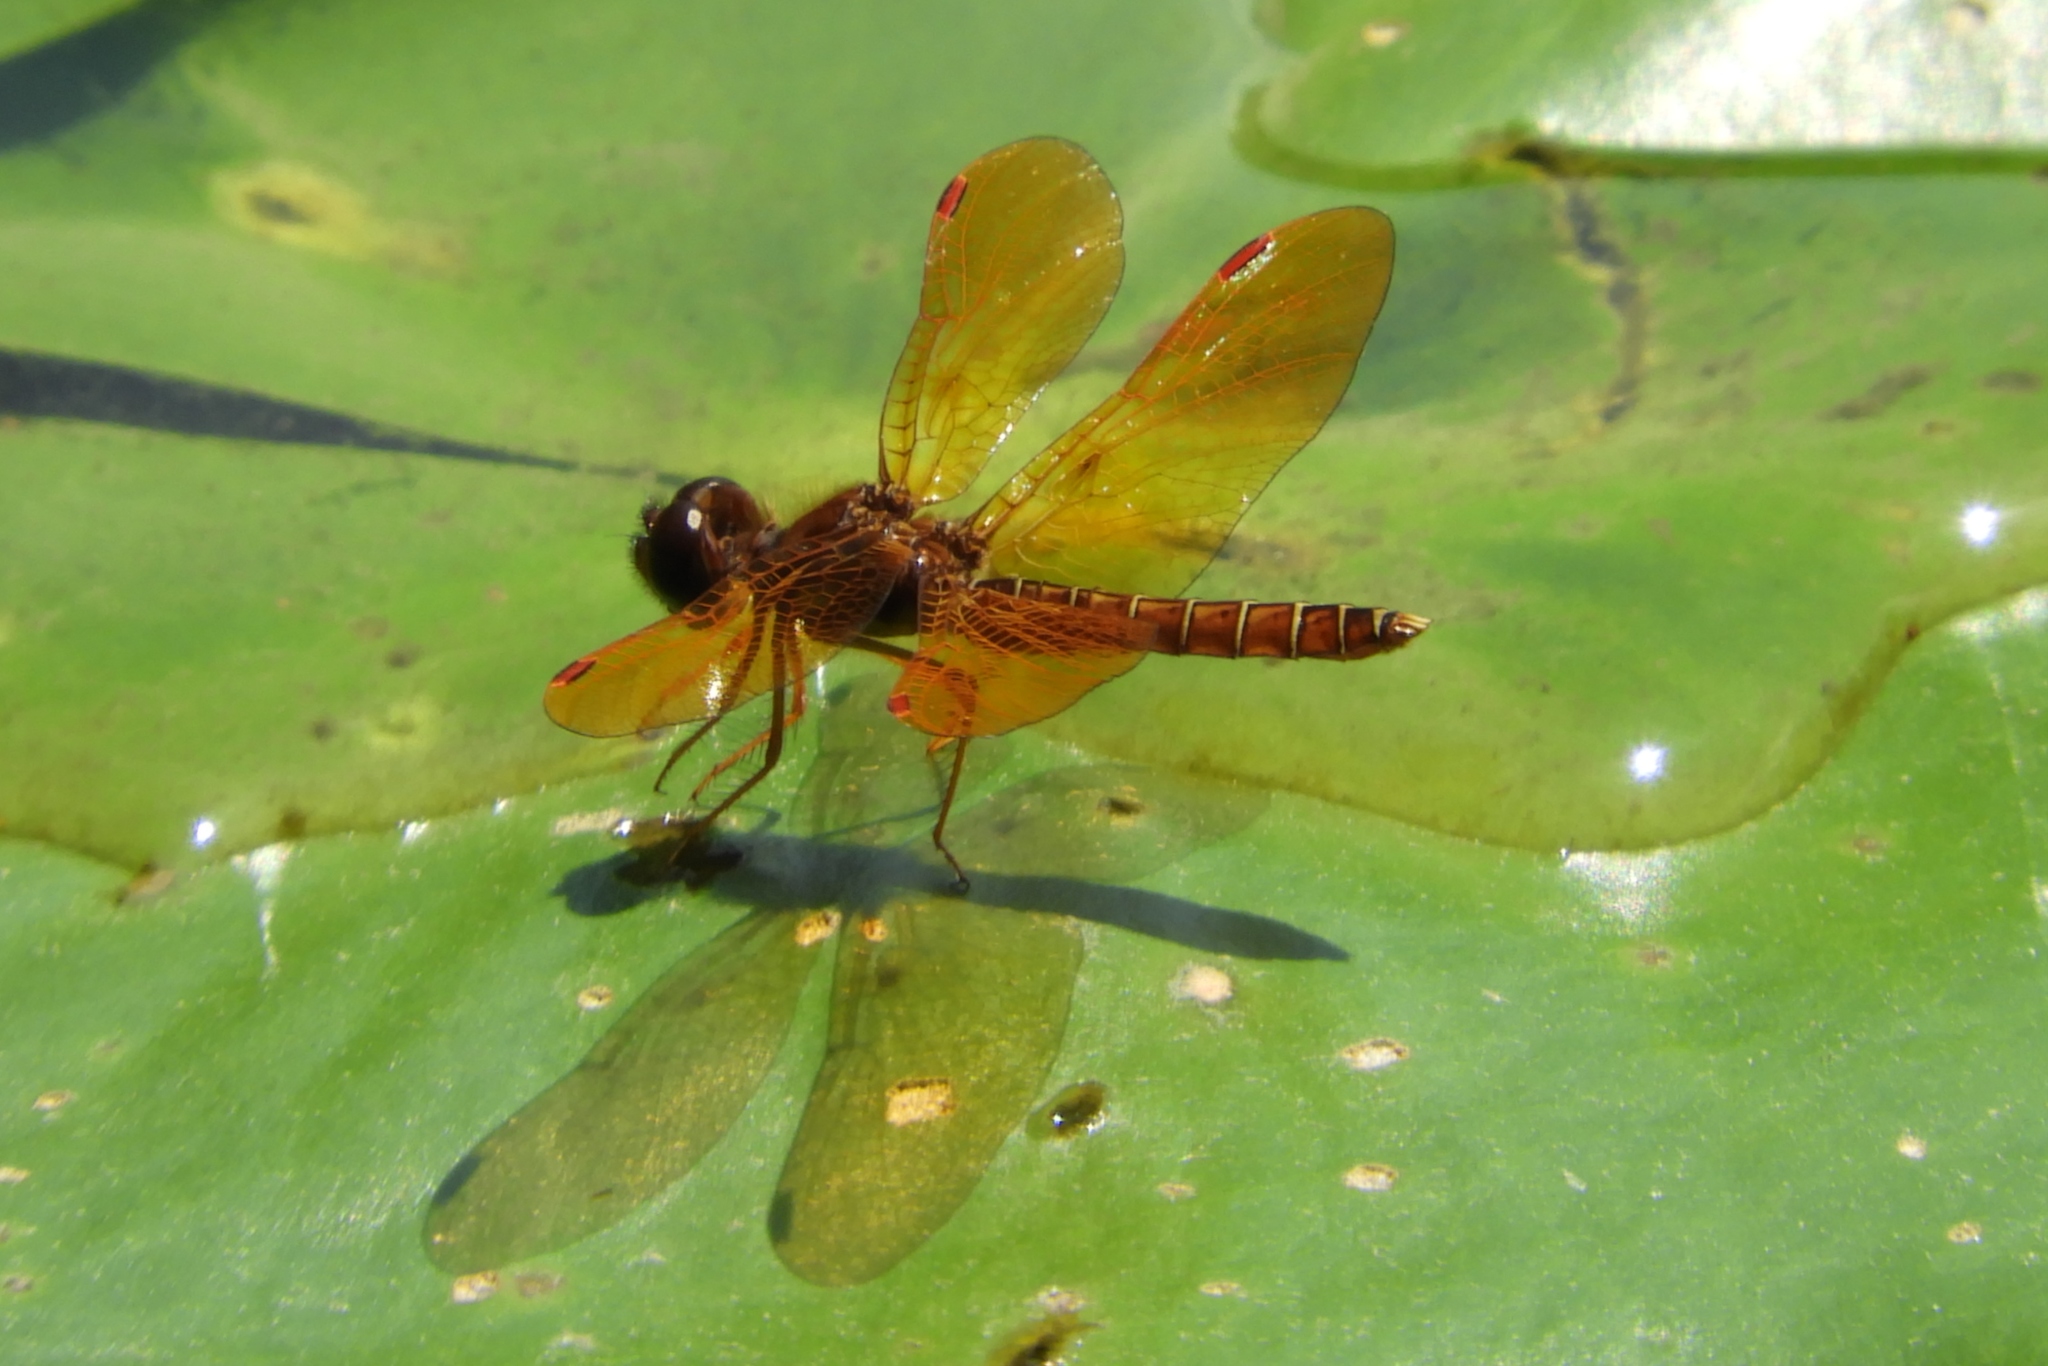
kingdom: Animalia
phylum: Arthropoda
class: Insecta
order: Odonata
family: Libellulidae
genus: Perithemis
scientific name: Perithemis tenera
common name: Eastern amberwing
